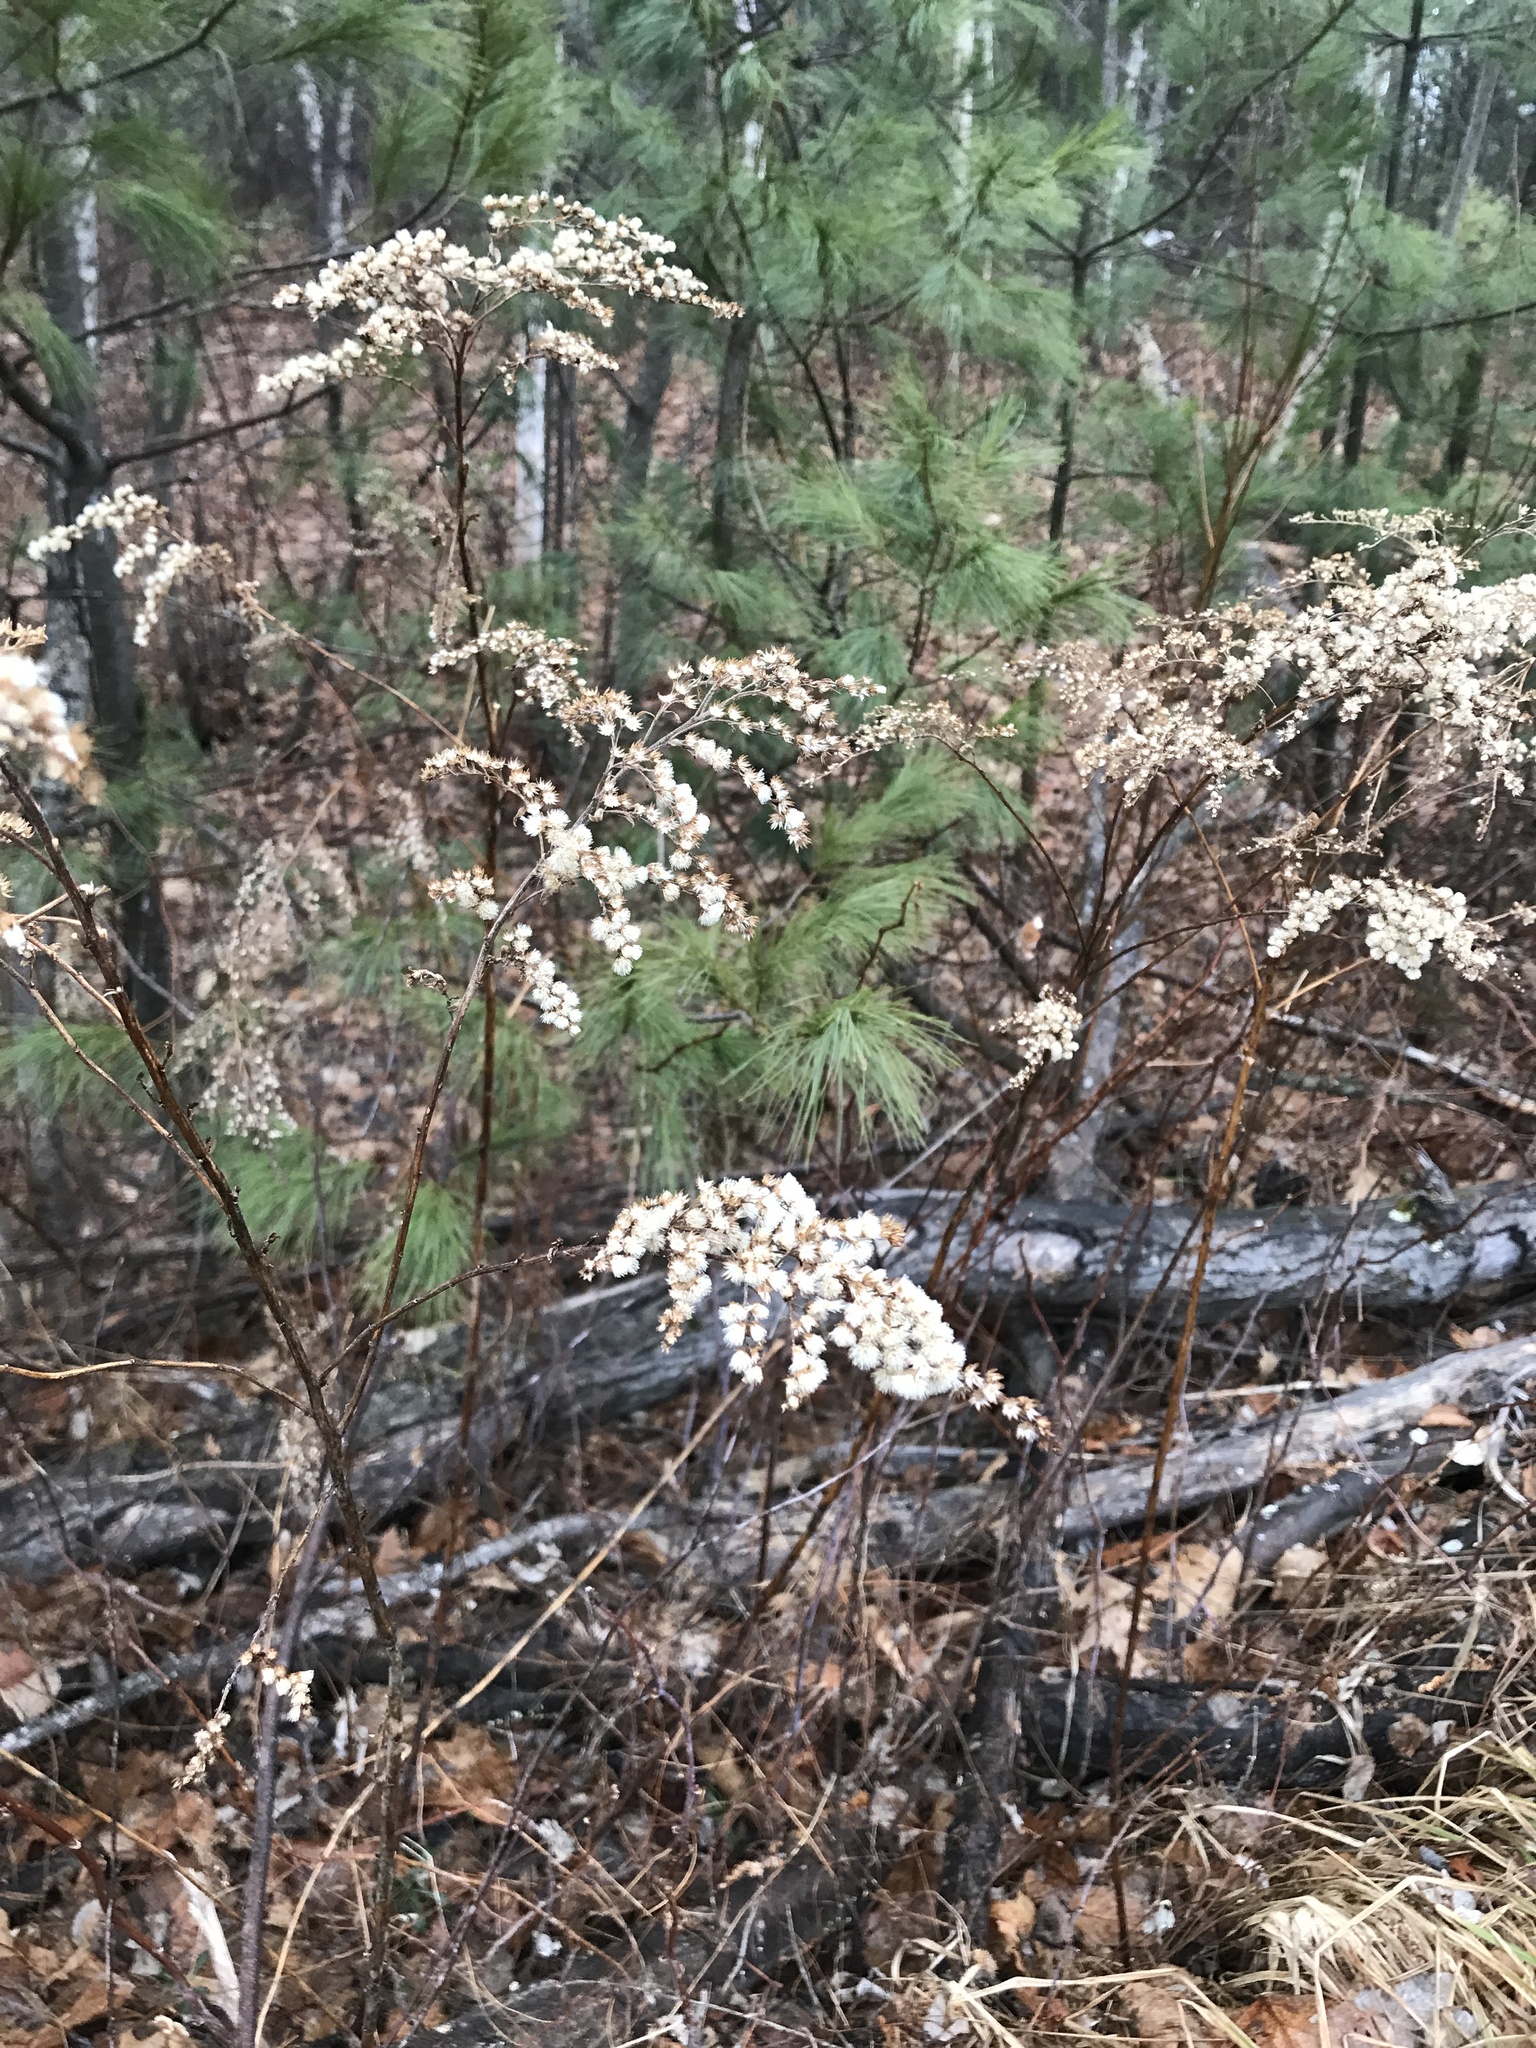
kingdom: Plantae
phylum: Tracheophyta
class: Magnoliopsida
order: Asterales
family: Asteraceae
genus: Solidago
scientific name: Solidago rugosa
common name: Rough-stemmed goldenrod
